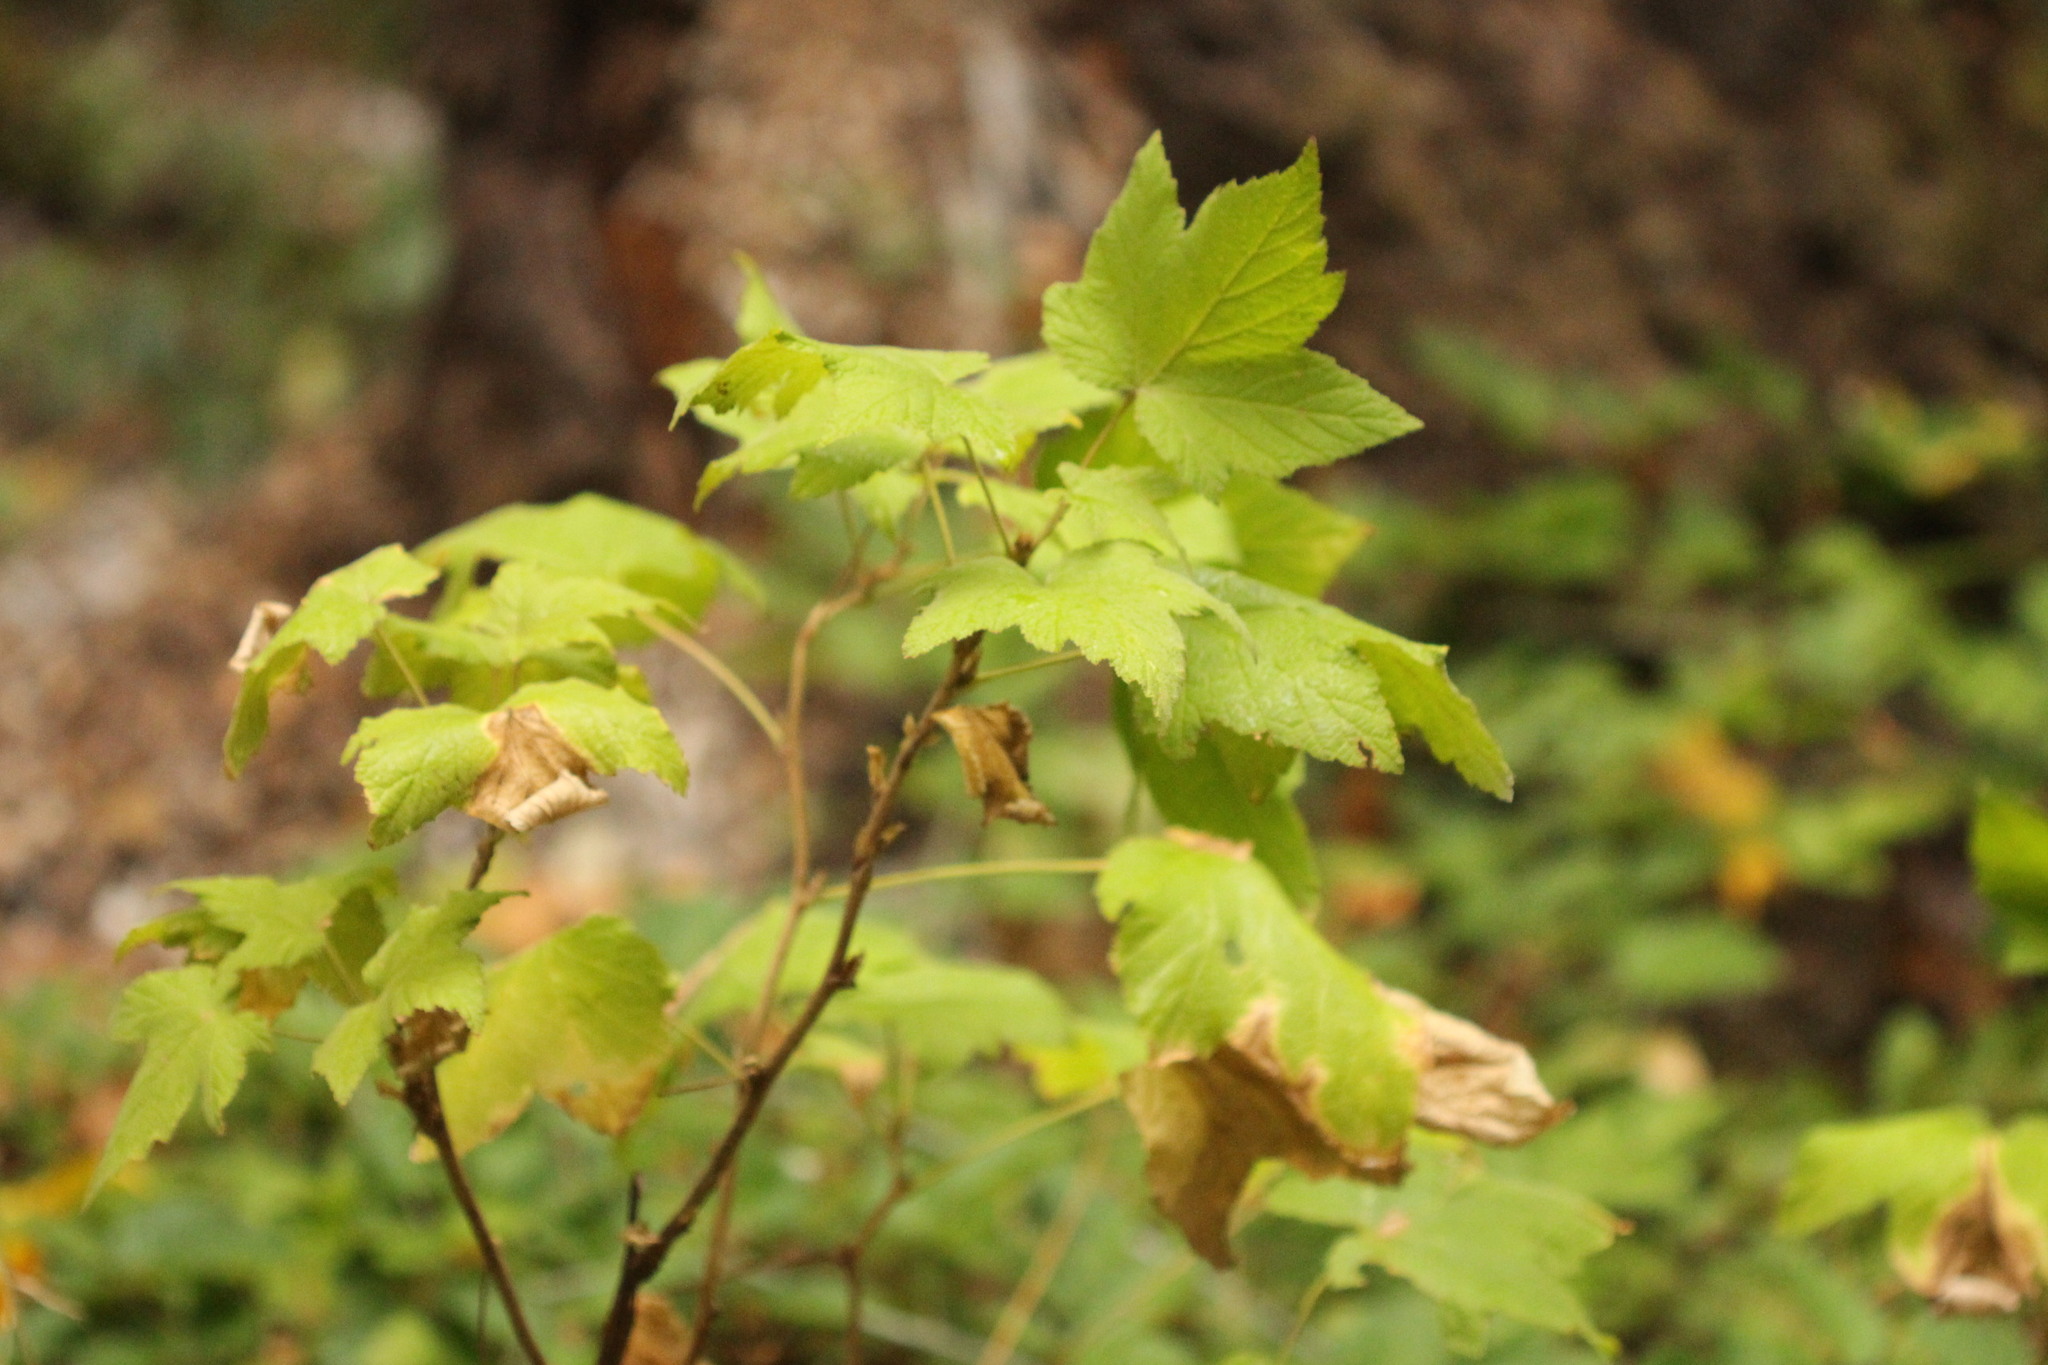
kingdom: Plantae
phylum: Tracheophyta
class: Magnoliopsida
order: Rosales
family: Rosaceae
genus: Rubus
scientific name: Rubus parviflorus
